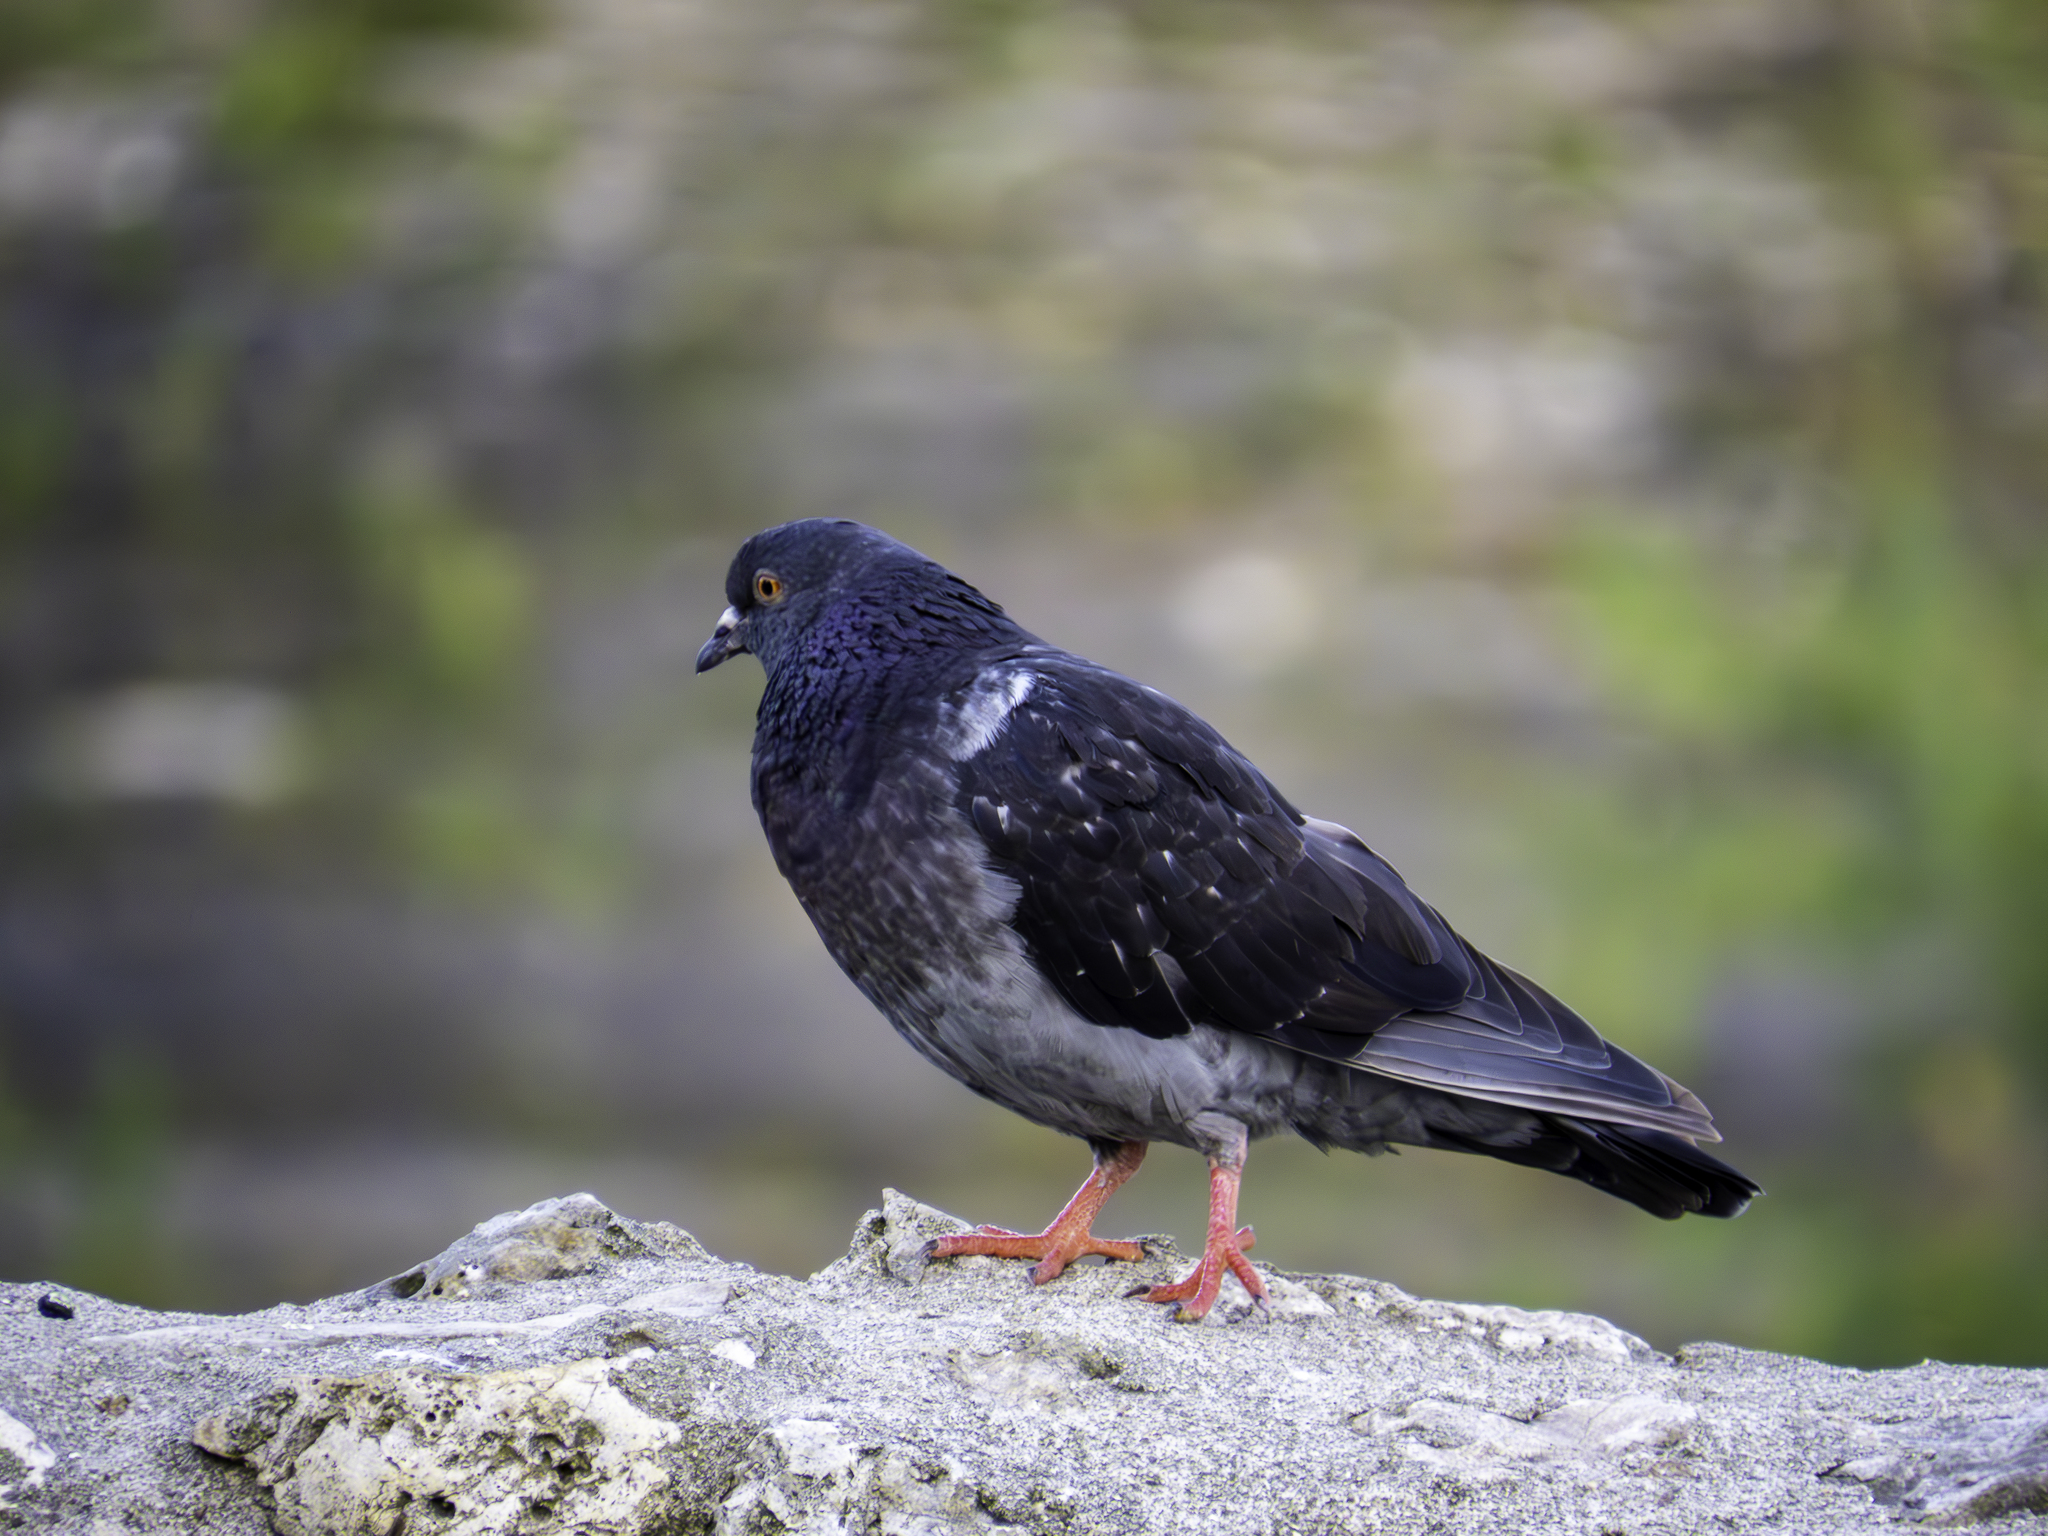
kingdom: Animalia
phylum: Chordata
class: Aves
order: Columbiformes
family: Columbidae
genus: Columba
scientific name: Columba livia
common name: Rock pigeon
